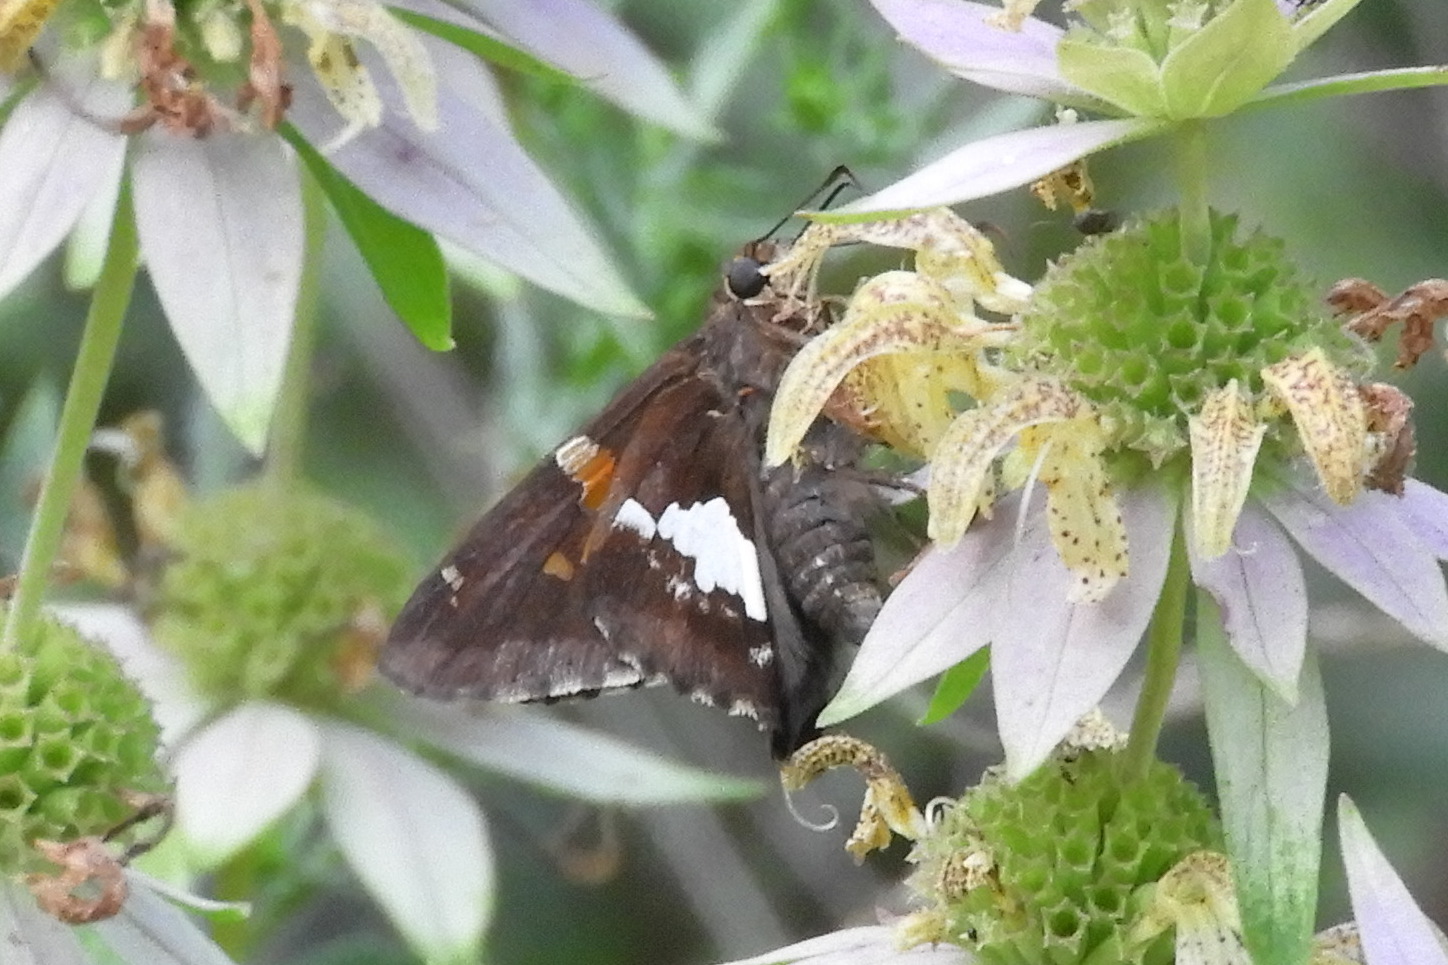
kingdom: Animalia
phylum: Arthropoda
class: Insecta
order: Lepidoptera
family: Hesperiidae
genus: Epargyreus
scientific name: Epargyreus clarus
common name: Silver-spotted skipper
